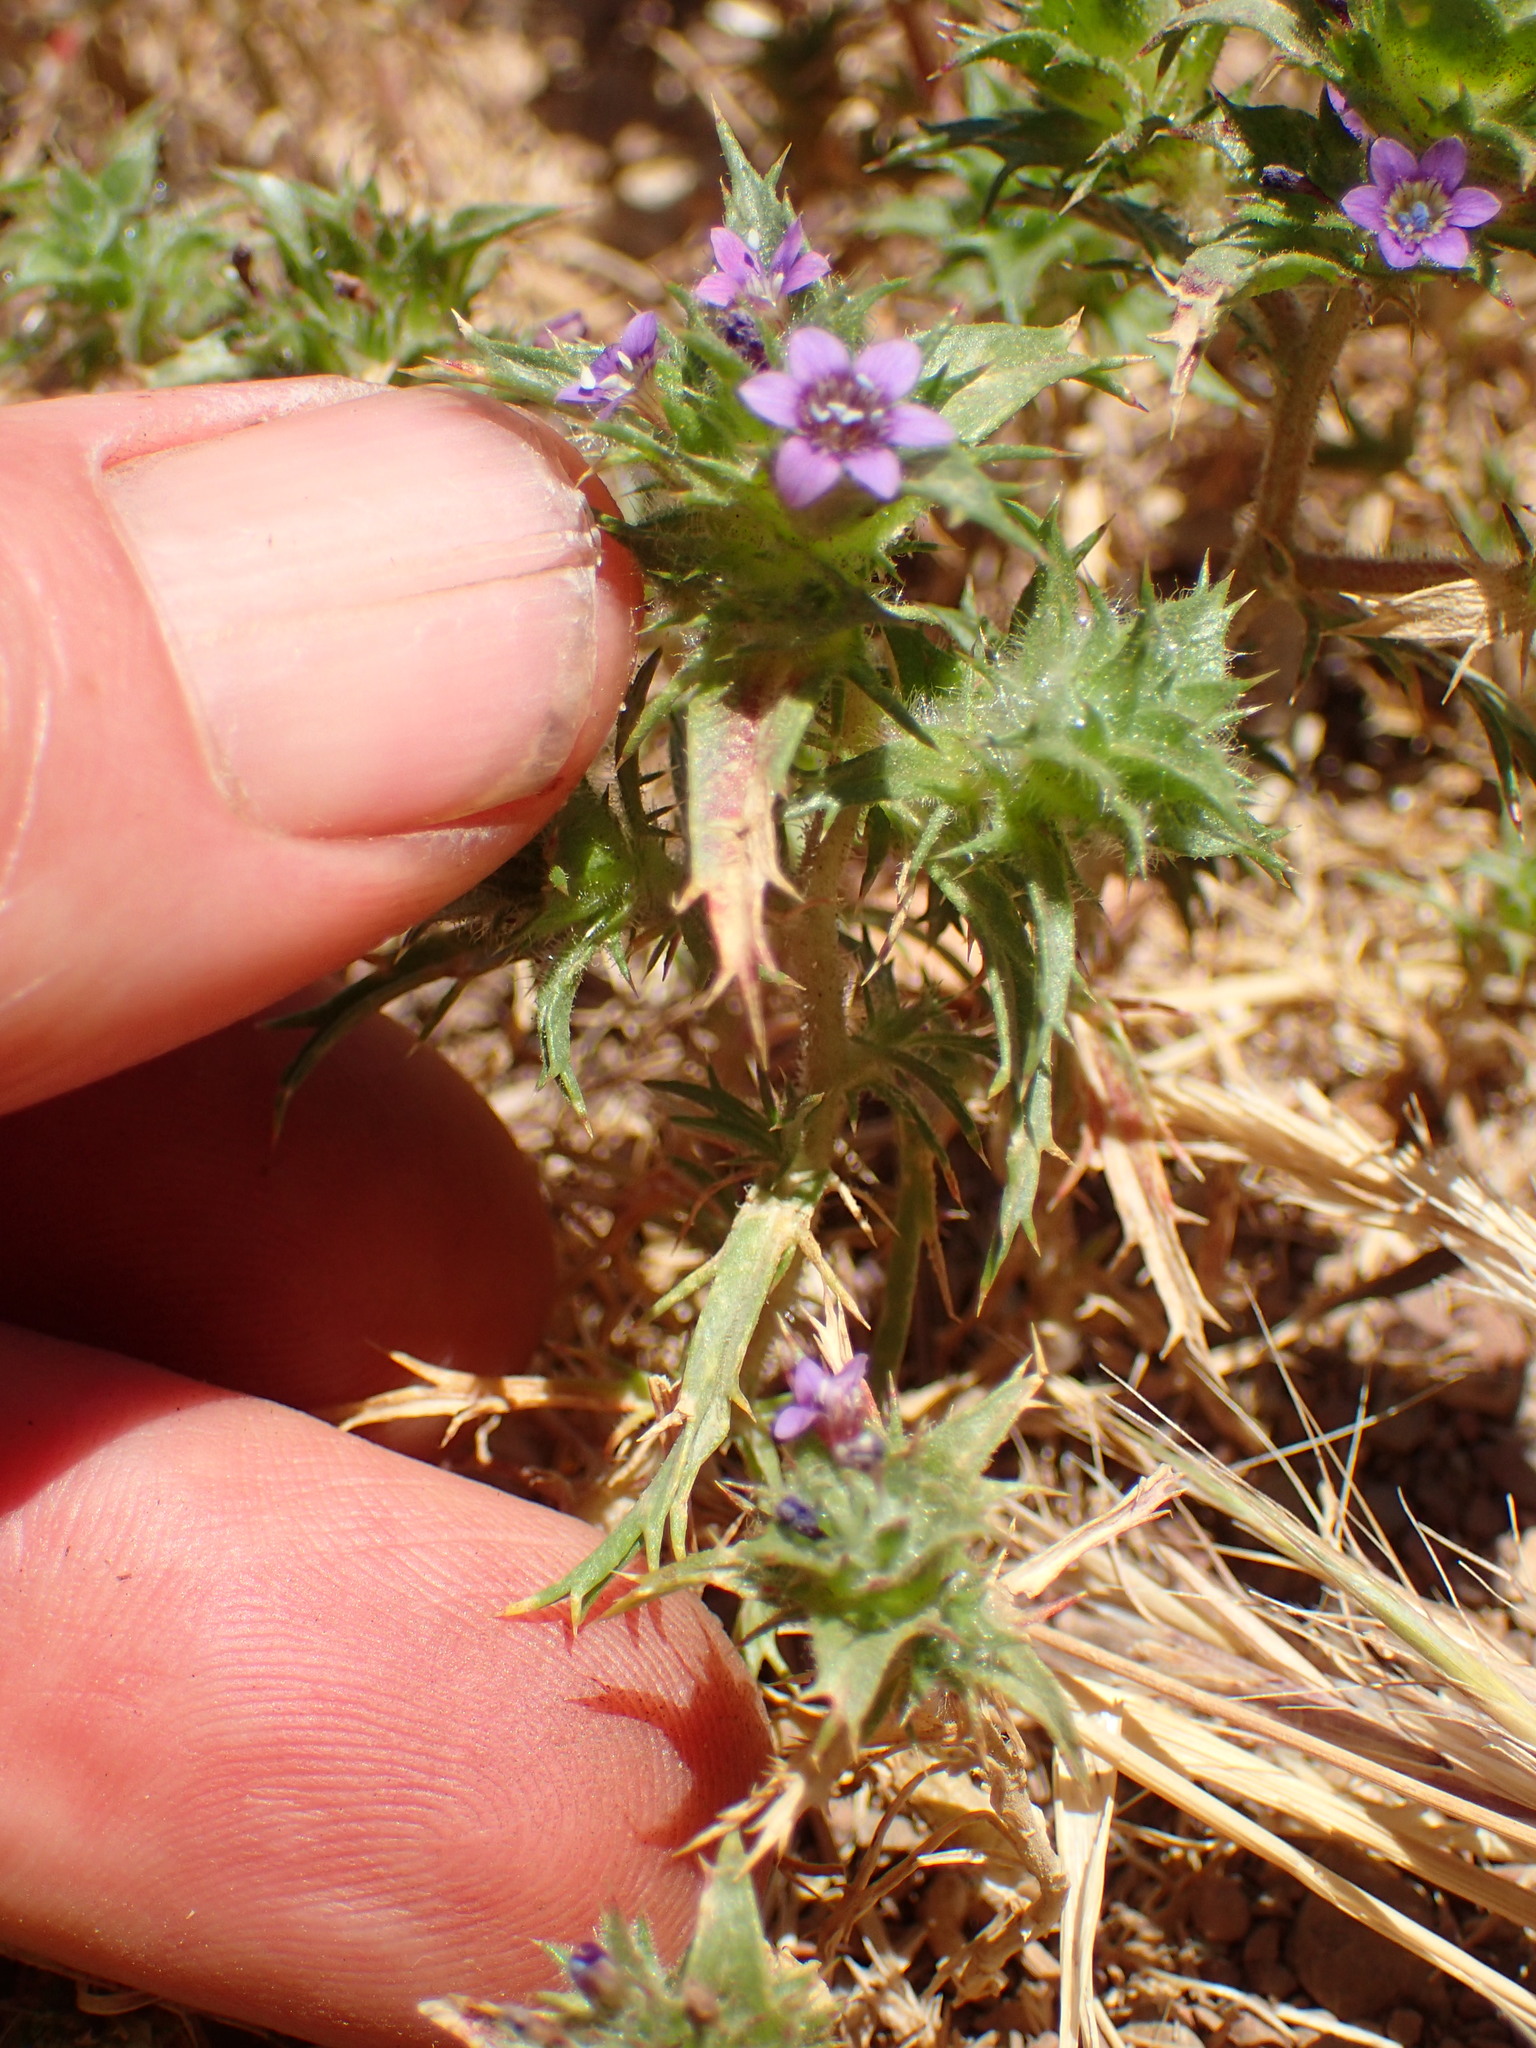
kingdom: Plantae
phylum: Tracheophyta
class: Magnoliopsida
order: Ericales
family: Polemoniaceae
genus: Navarretia
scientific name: Navarretia atractyloides
